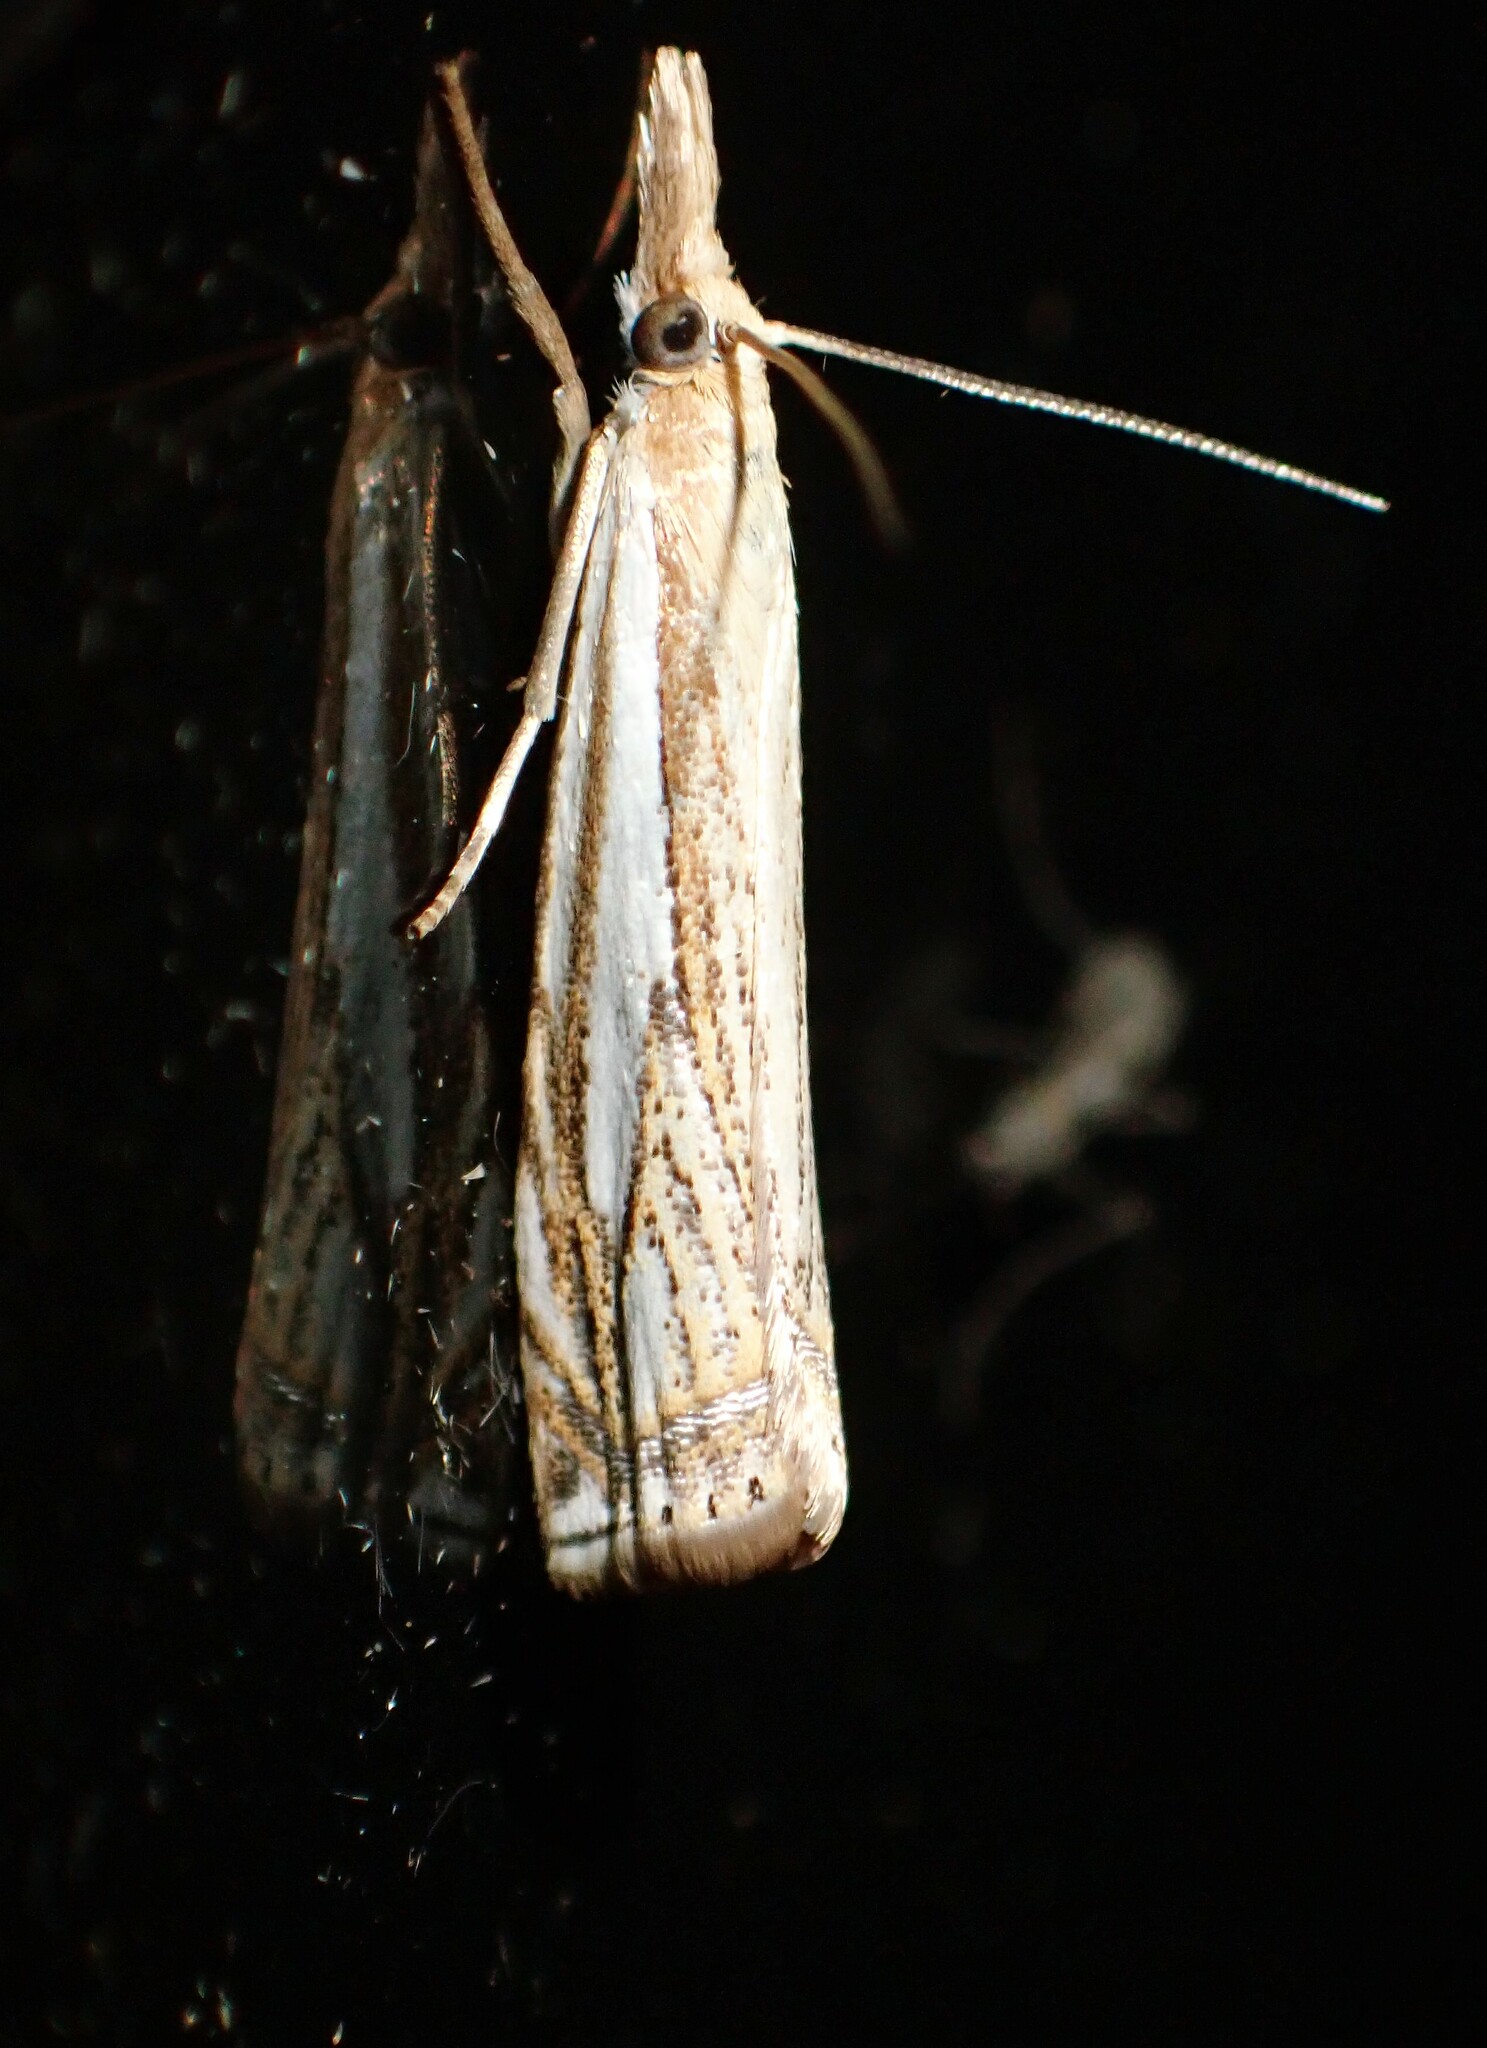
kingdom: Animalia
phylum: Arthropoda
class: Insecta
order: Lepidoptera
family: Crambidae
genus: Crambus
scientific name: Crambus saltuellus
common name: Pasture grass-veneer
